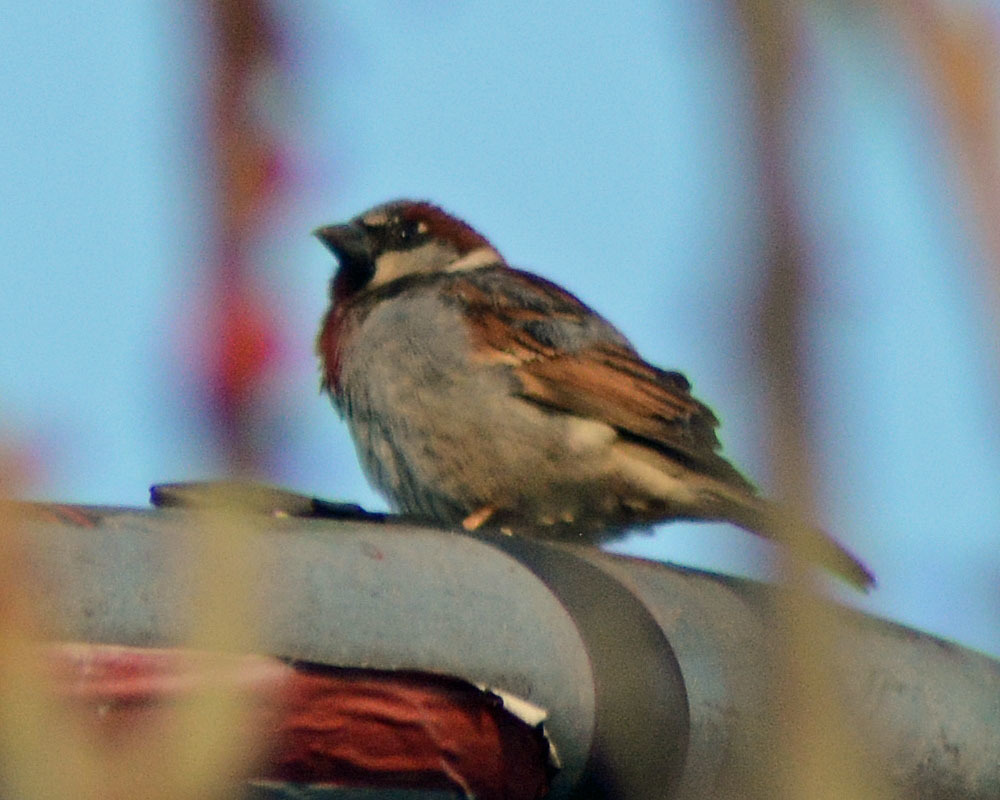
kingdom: Animalia
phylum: Chordata
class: Aves
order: Passeriformes
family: Passeridae
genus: Passer
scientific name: Passer domesticus
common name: House sparrow
